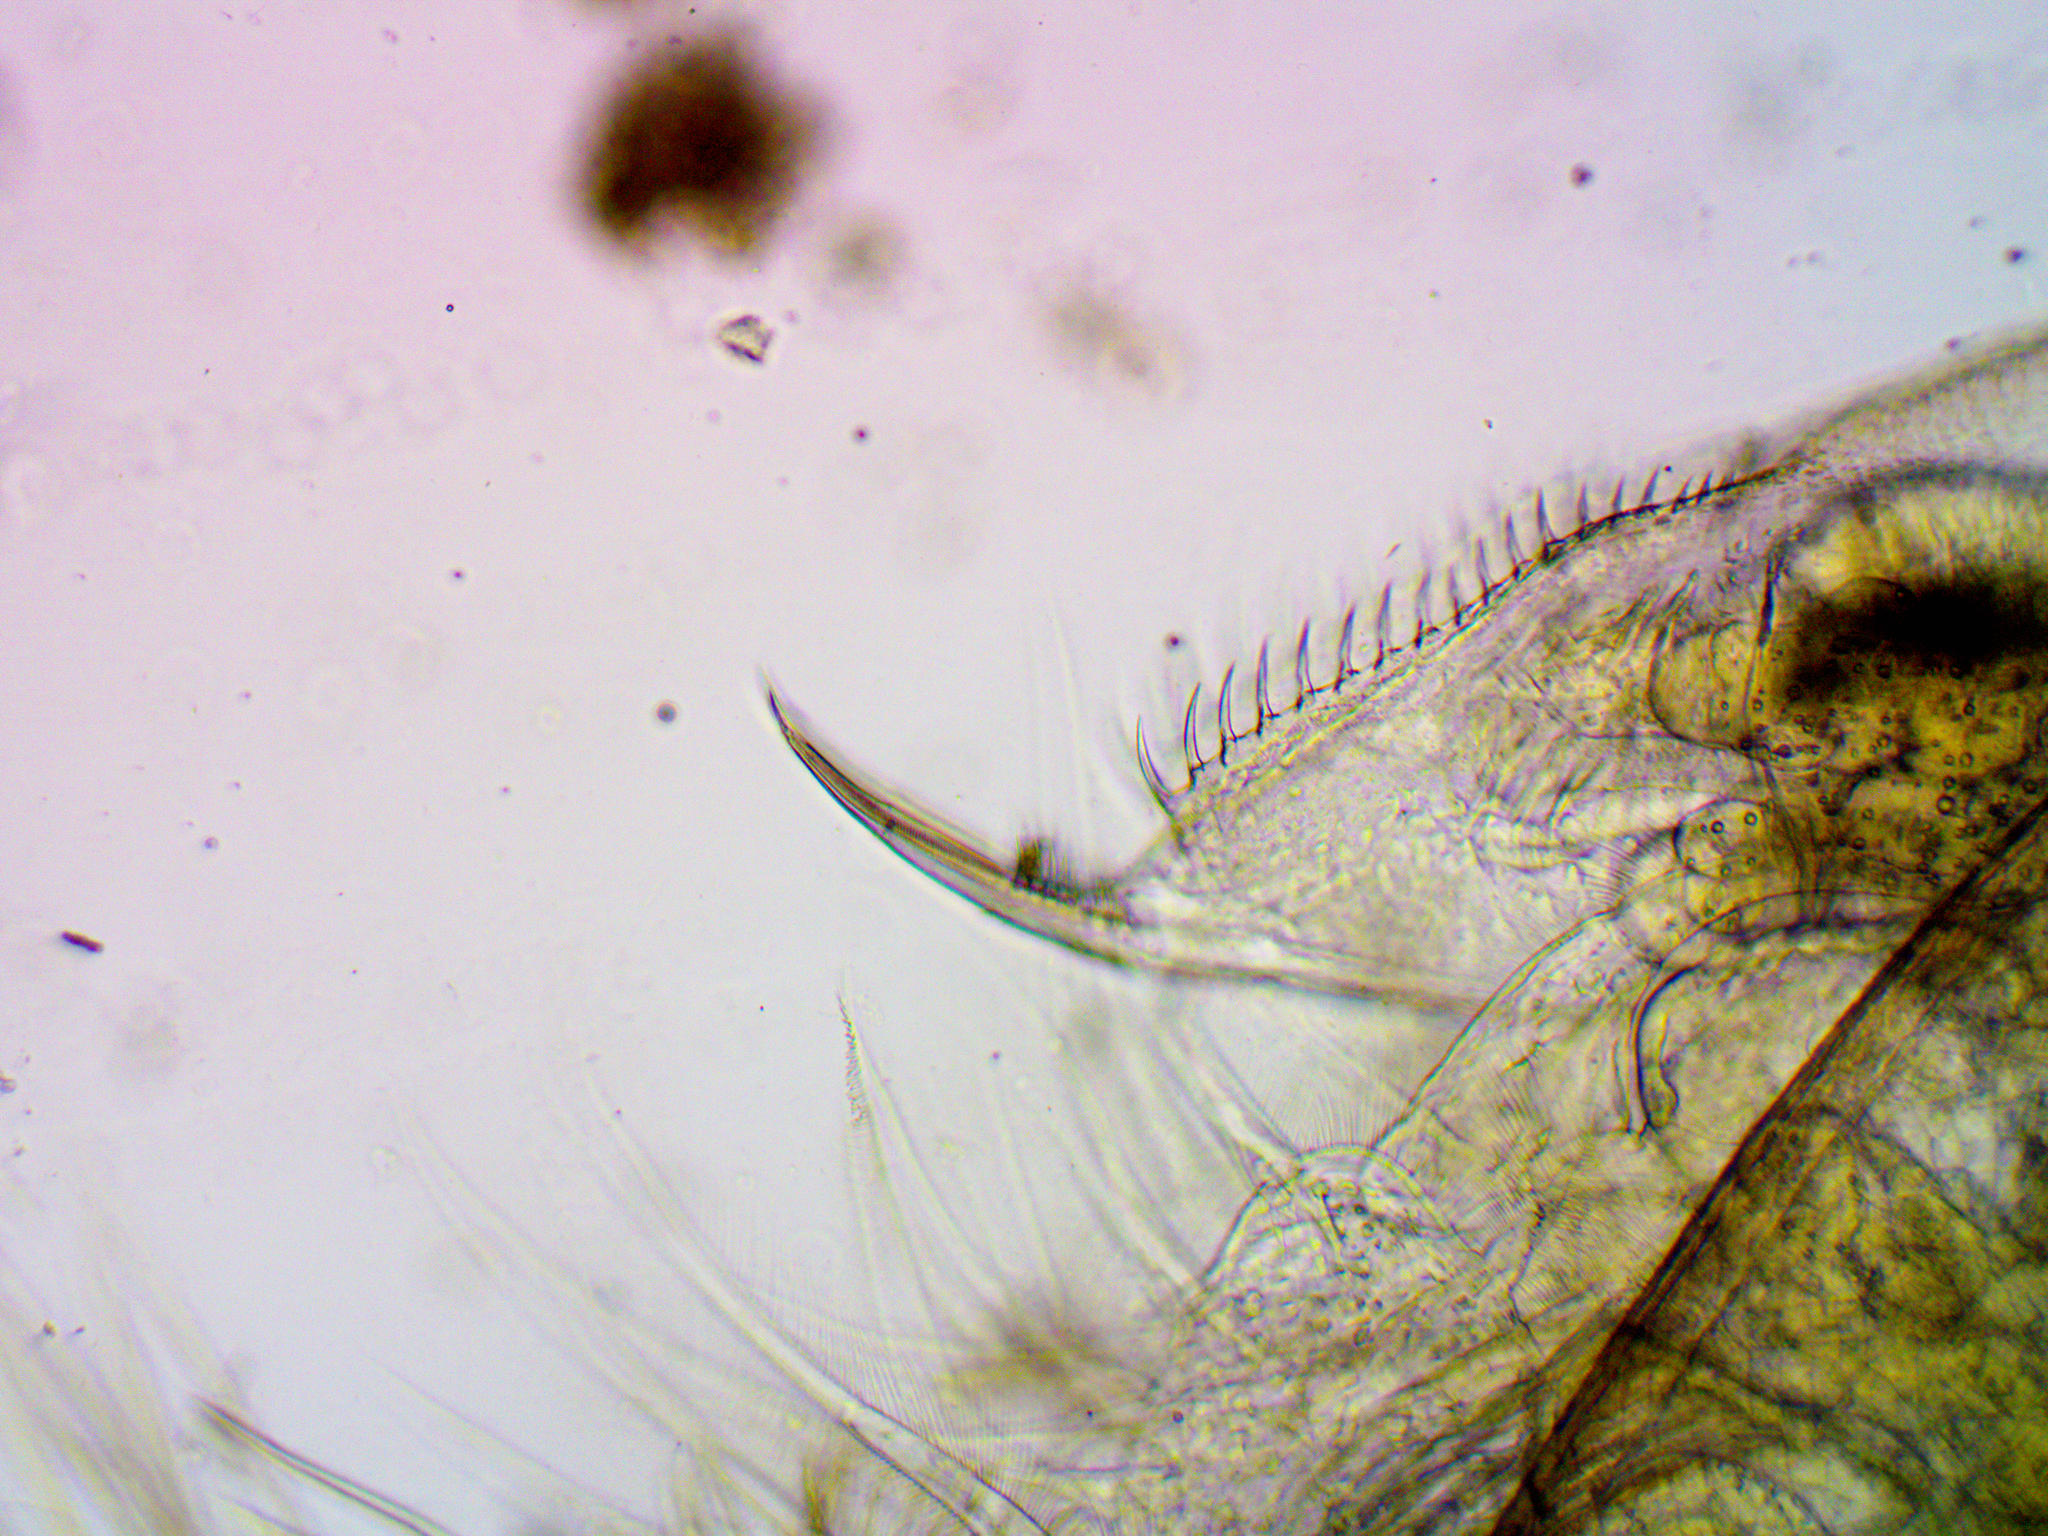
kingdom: Animalia
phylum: Arthropoda
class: Branchiopoda
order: Diplostraca
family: Daphniidae
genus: Daphnia
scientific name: Daphnia pulex
